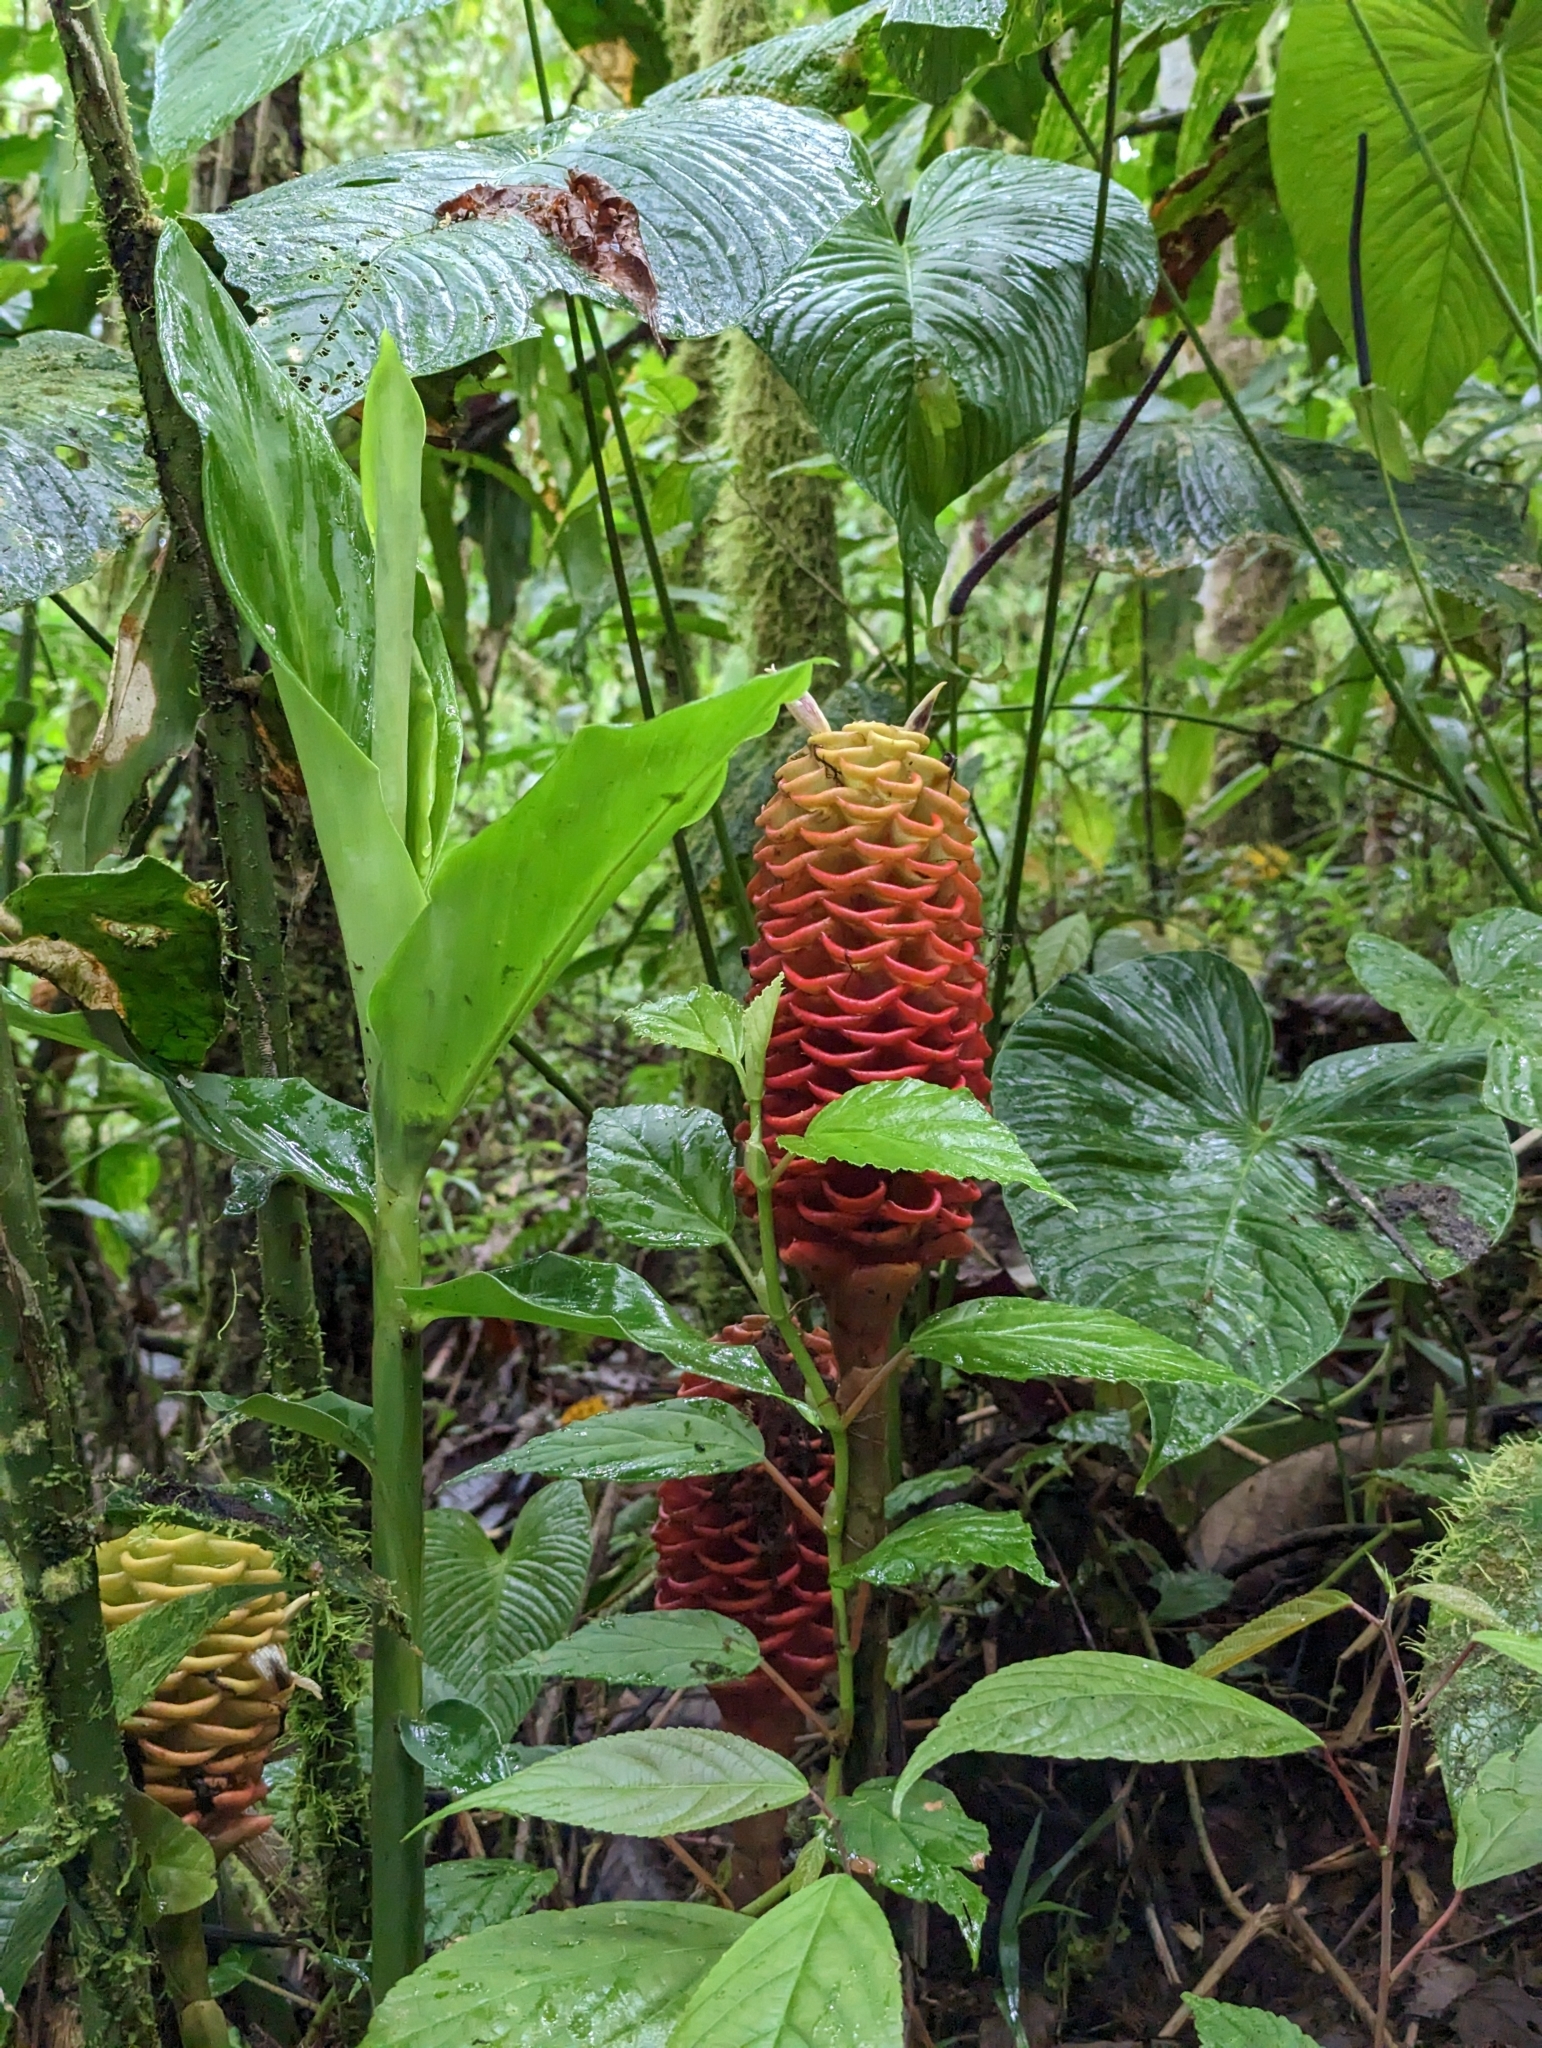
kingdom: Plantae
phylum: Tracheophyta
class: Liliopsida
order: Zingiberales
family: Zingiberaceae
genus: Zingiber
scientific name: Zingiber spectabile
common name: Beehive ginger
